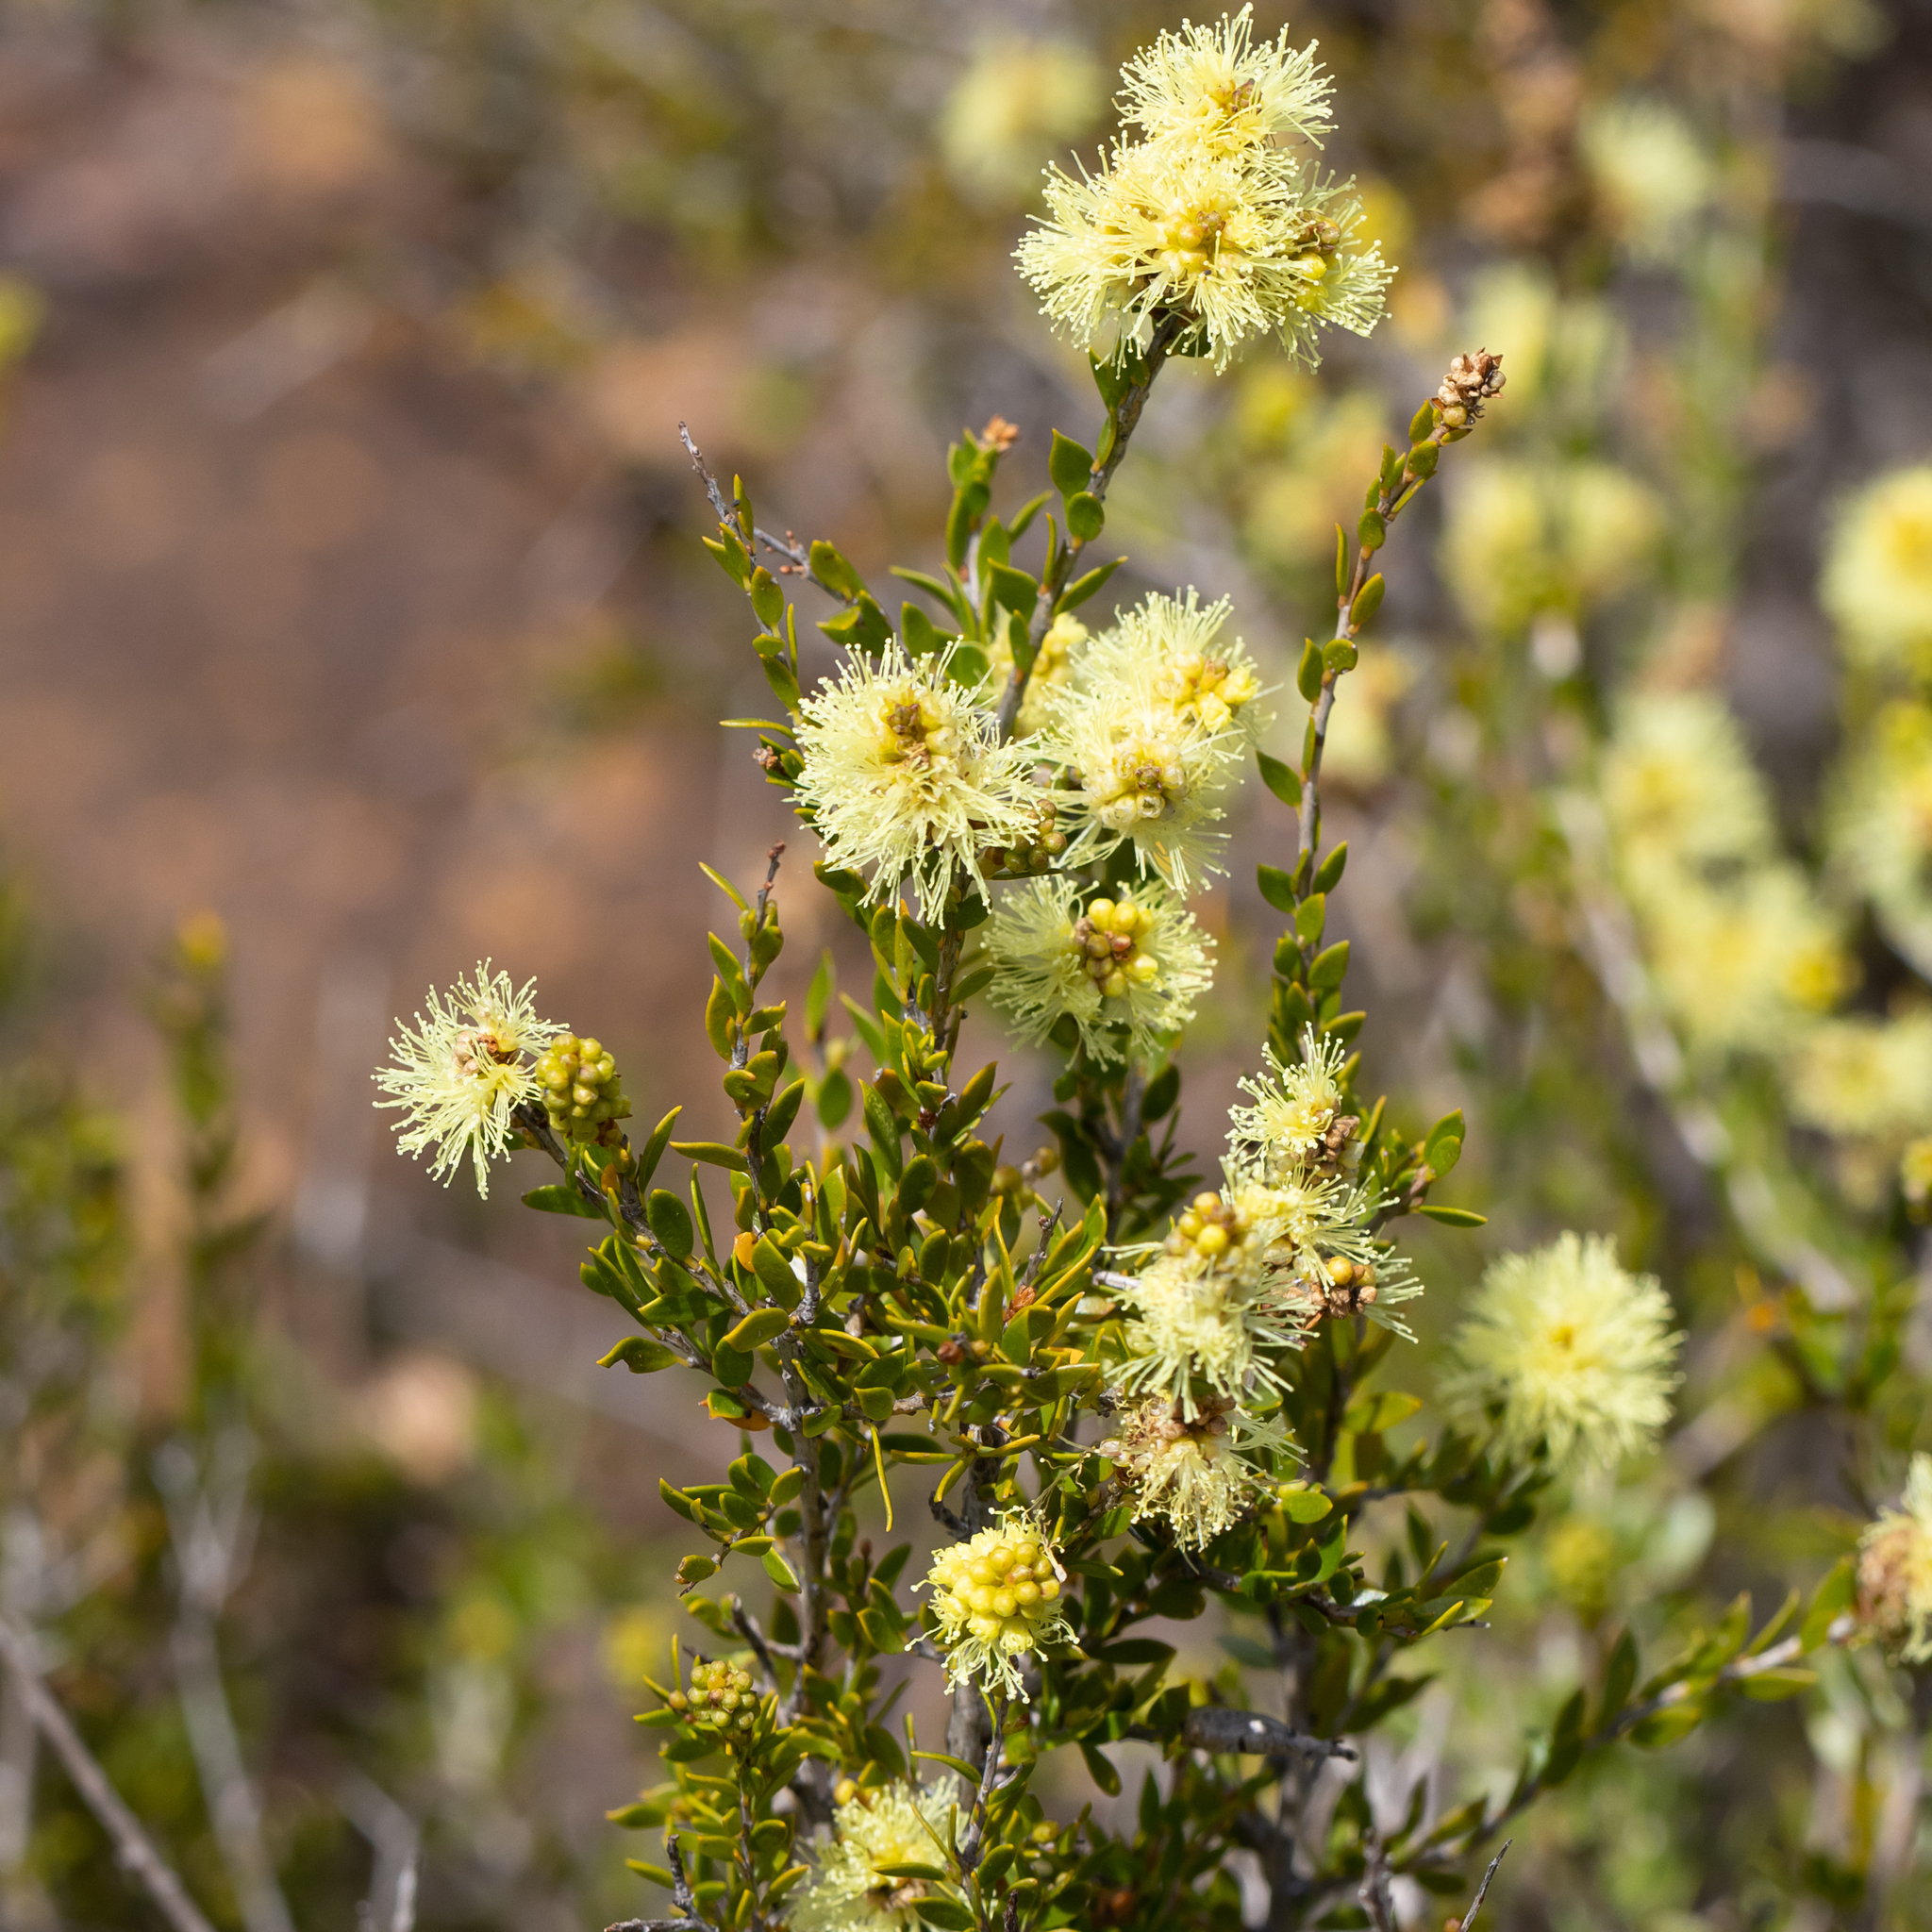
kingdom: Plantae
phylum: Tracheophyta
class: Magnoliopsida
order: Myrtales
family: Myrtaceae
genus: Melaleuca
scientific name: Melaleuca thymoides
